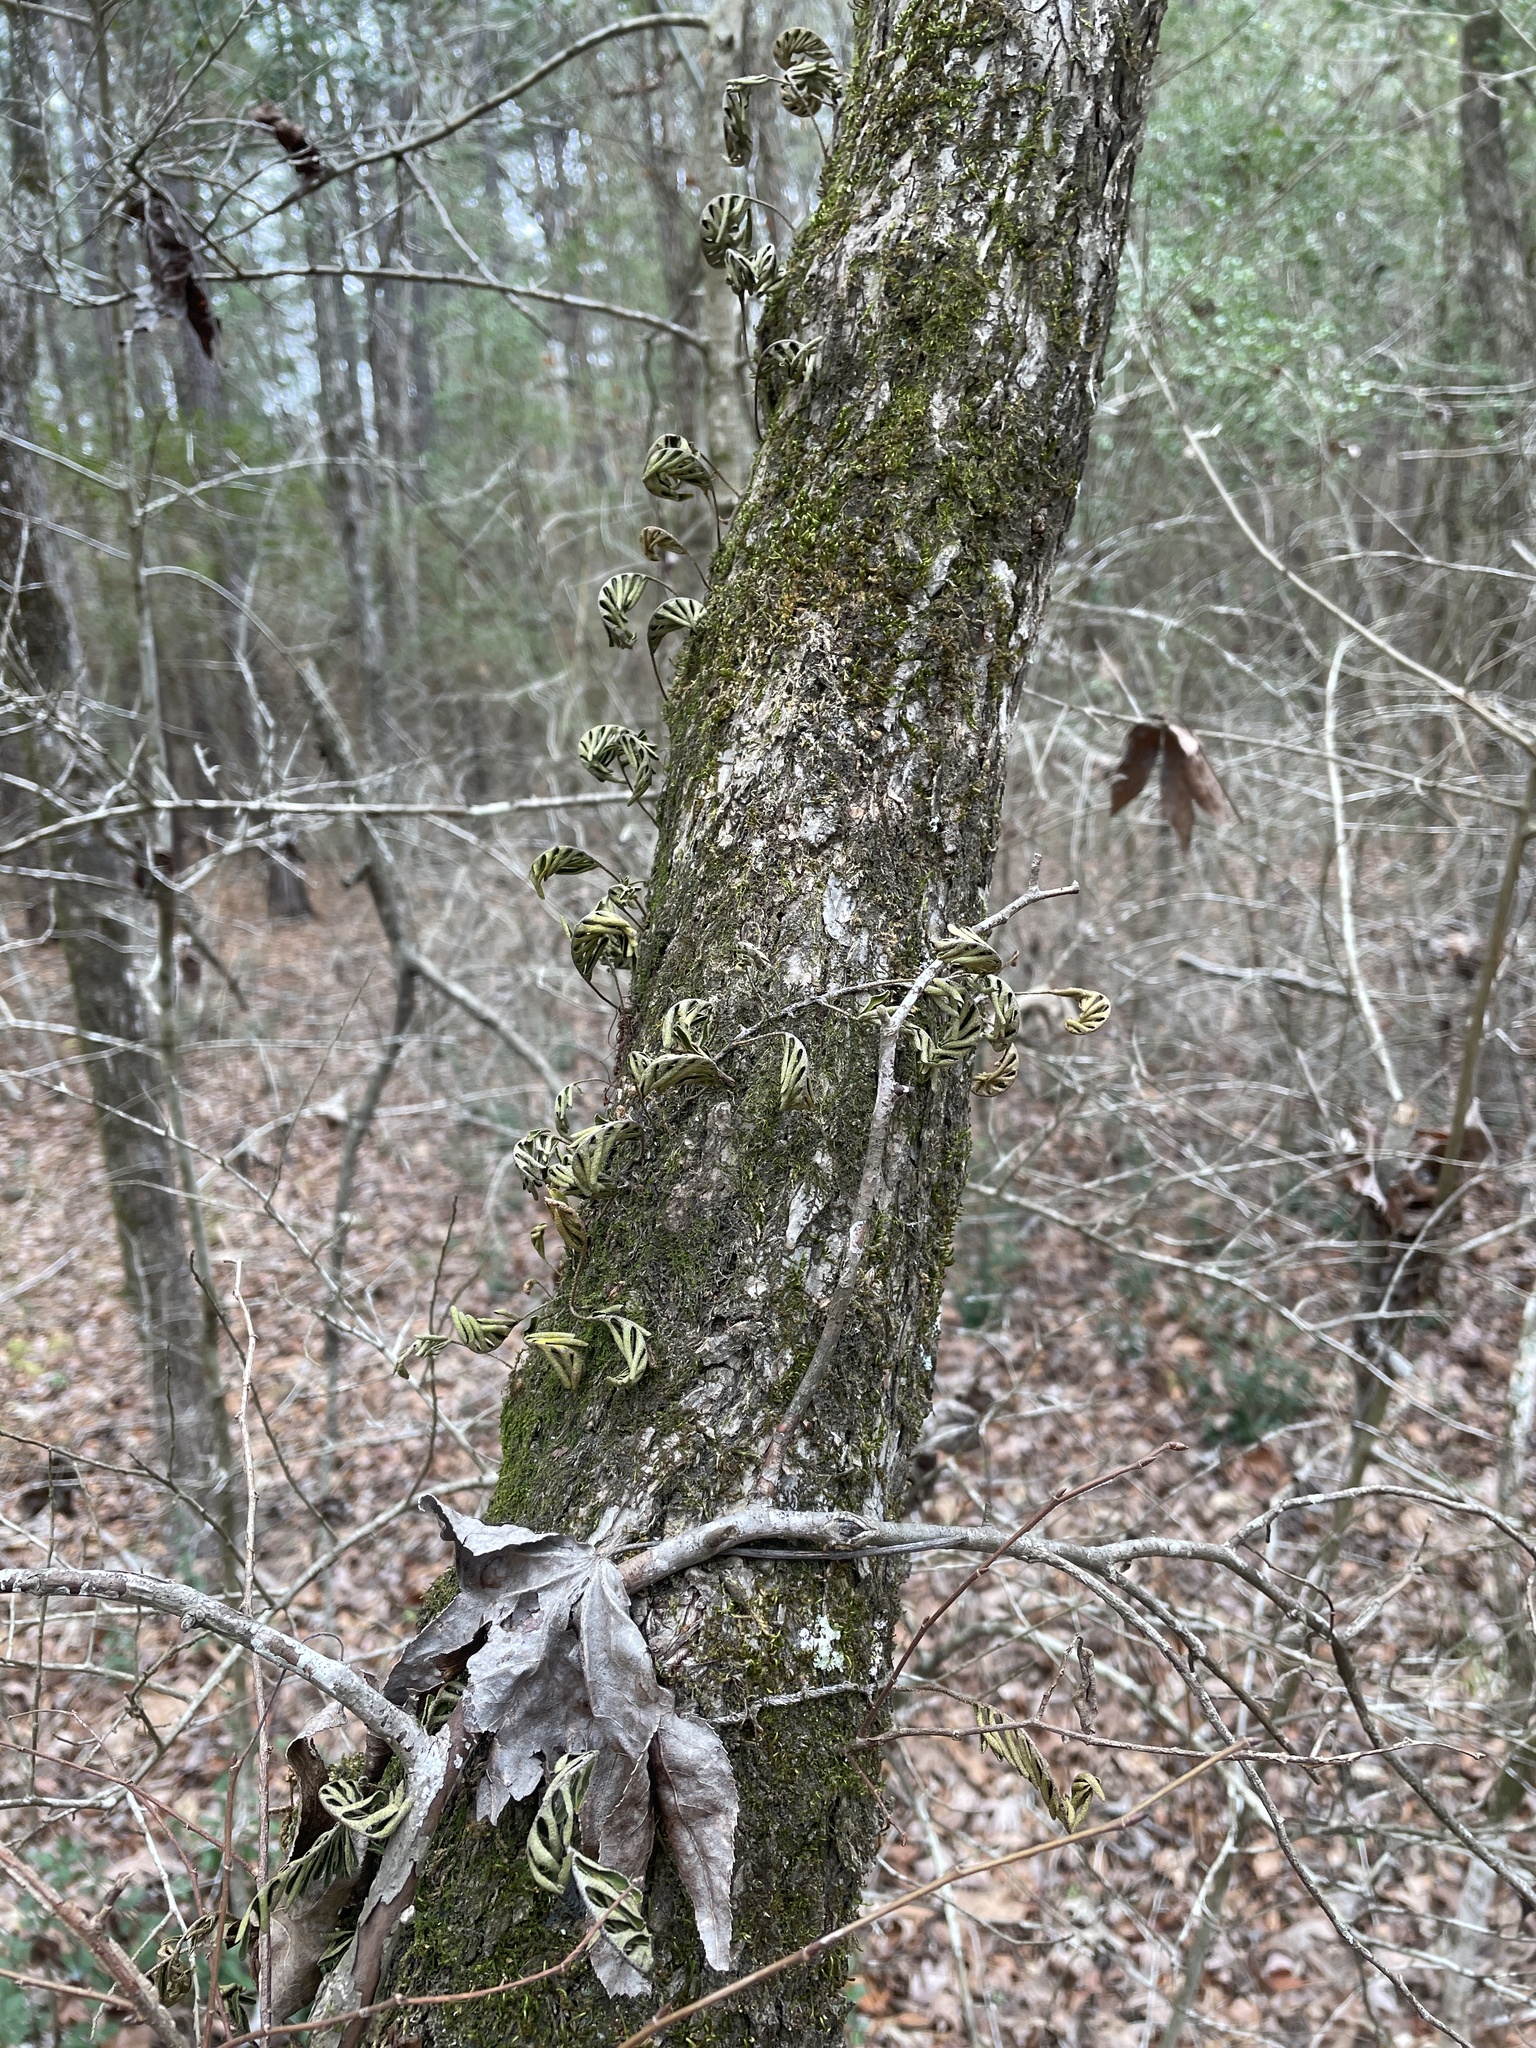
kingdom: Plantae
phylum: Tracheophyta
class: Polypodiopsida
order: Polypodiales
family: Polypodiaceae
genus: Pleopeltis
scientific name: Pleopeltis michauxiana
